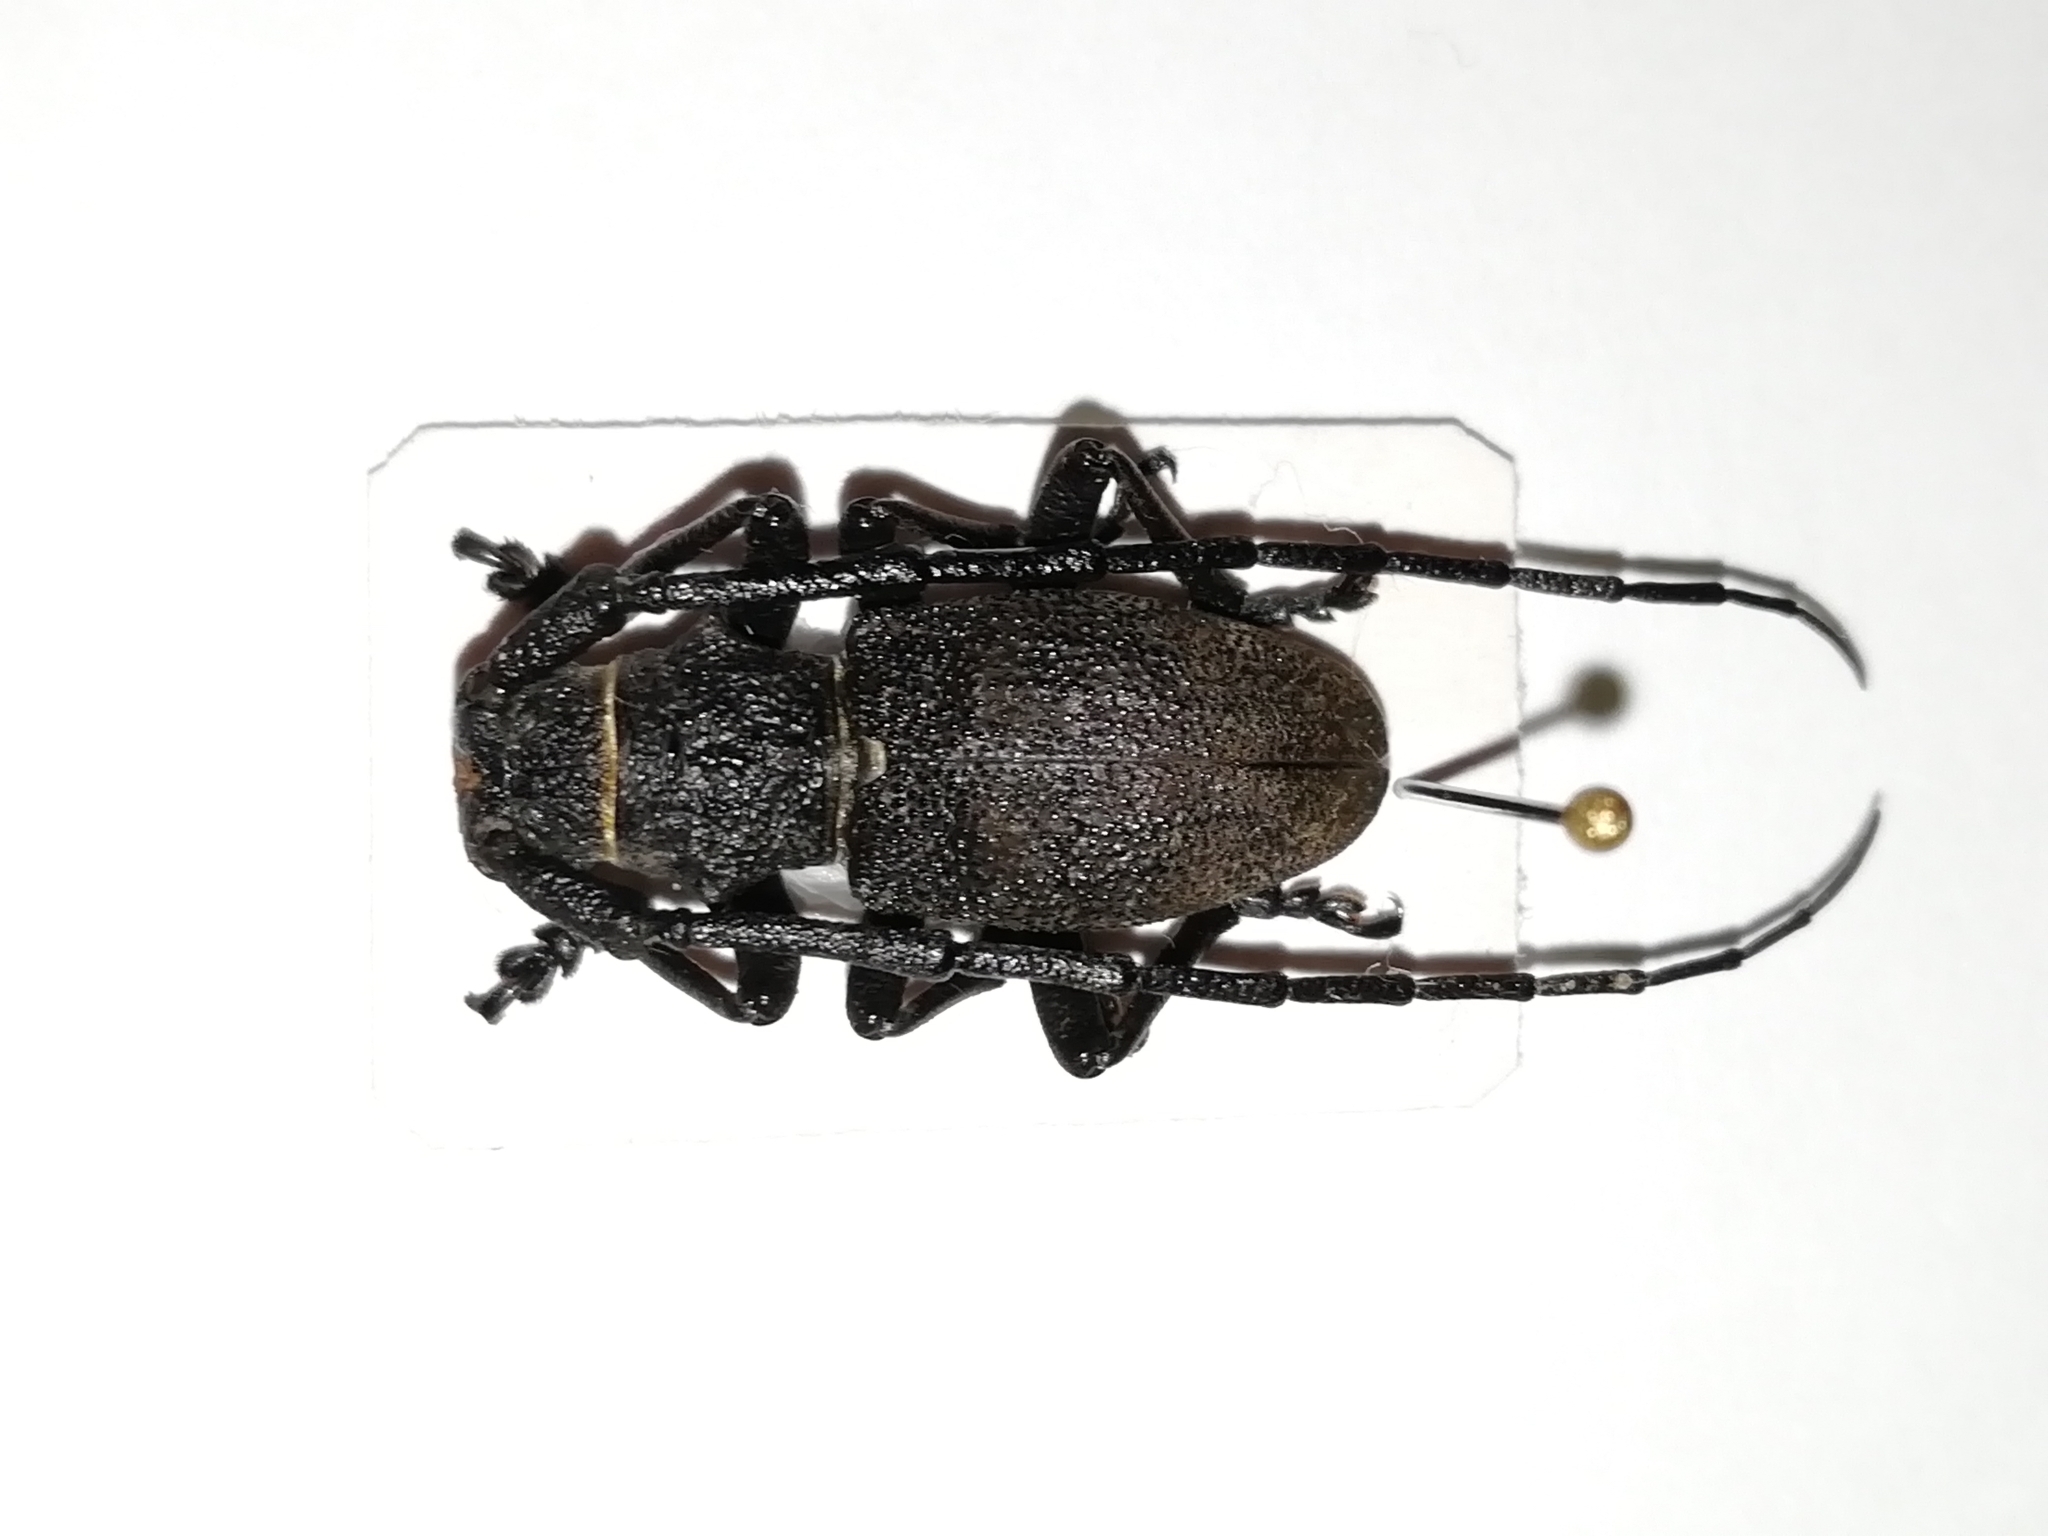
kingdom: Animalia
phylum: Arthropoda
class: Insecta
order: Coleoptera
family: Cerambycidae
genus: Morimus
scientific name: Morimus verecundus
